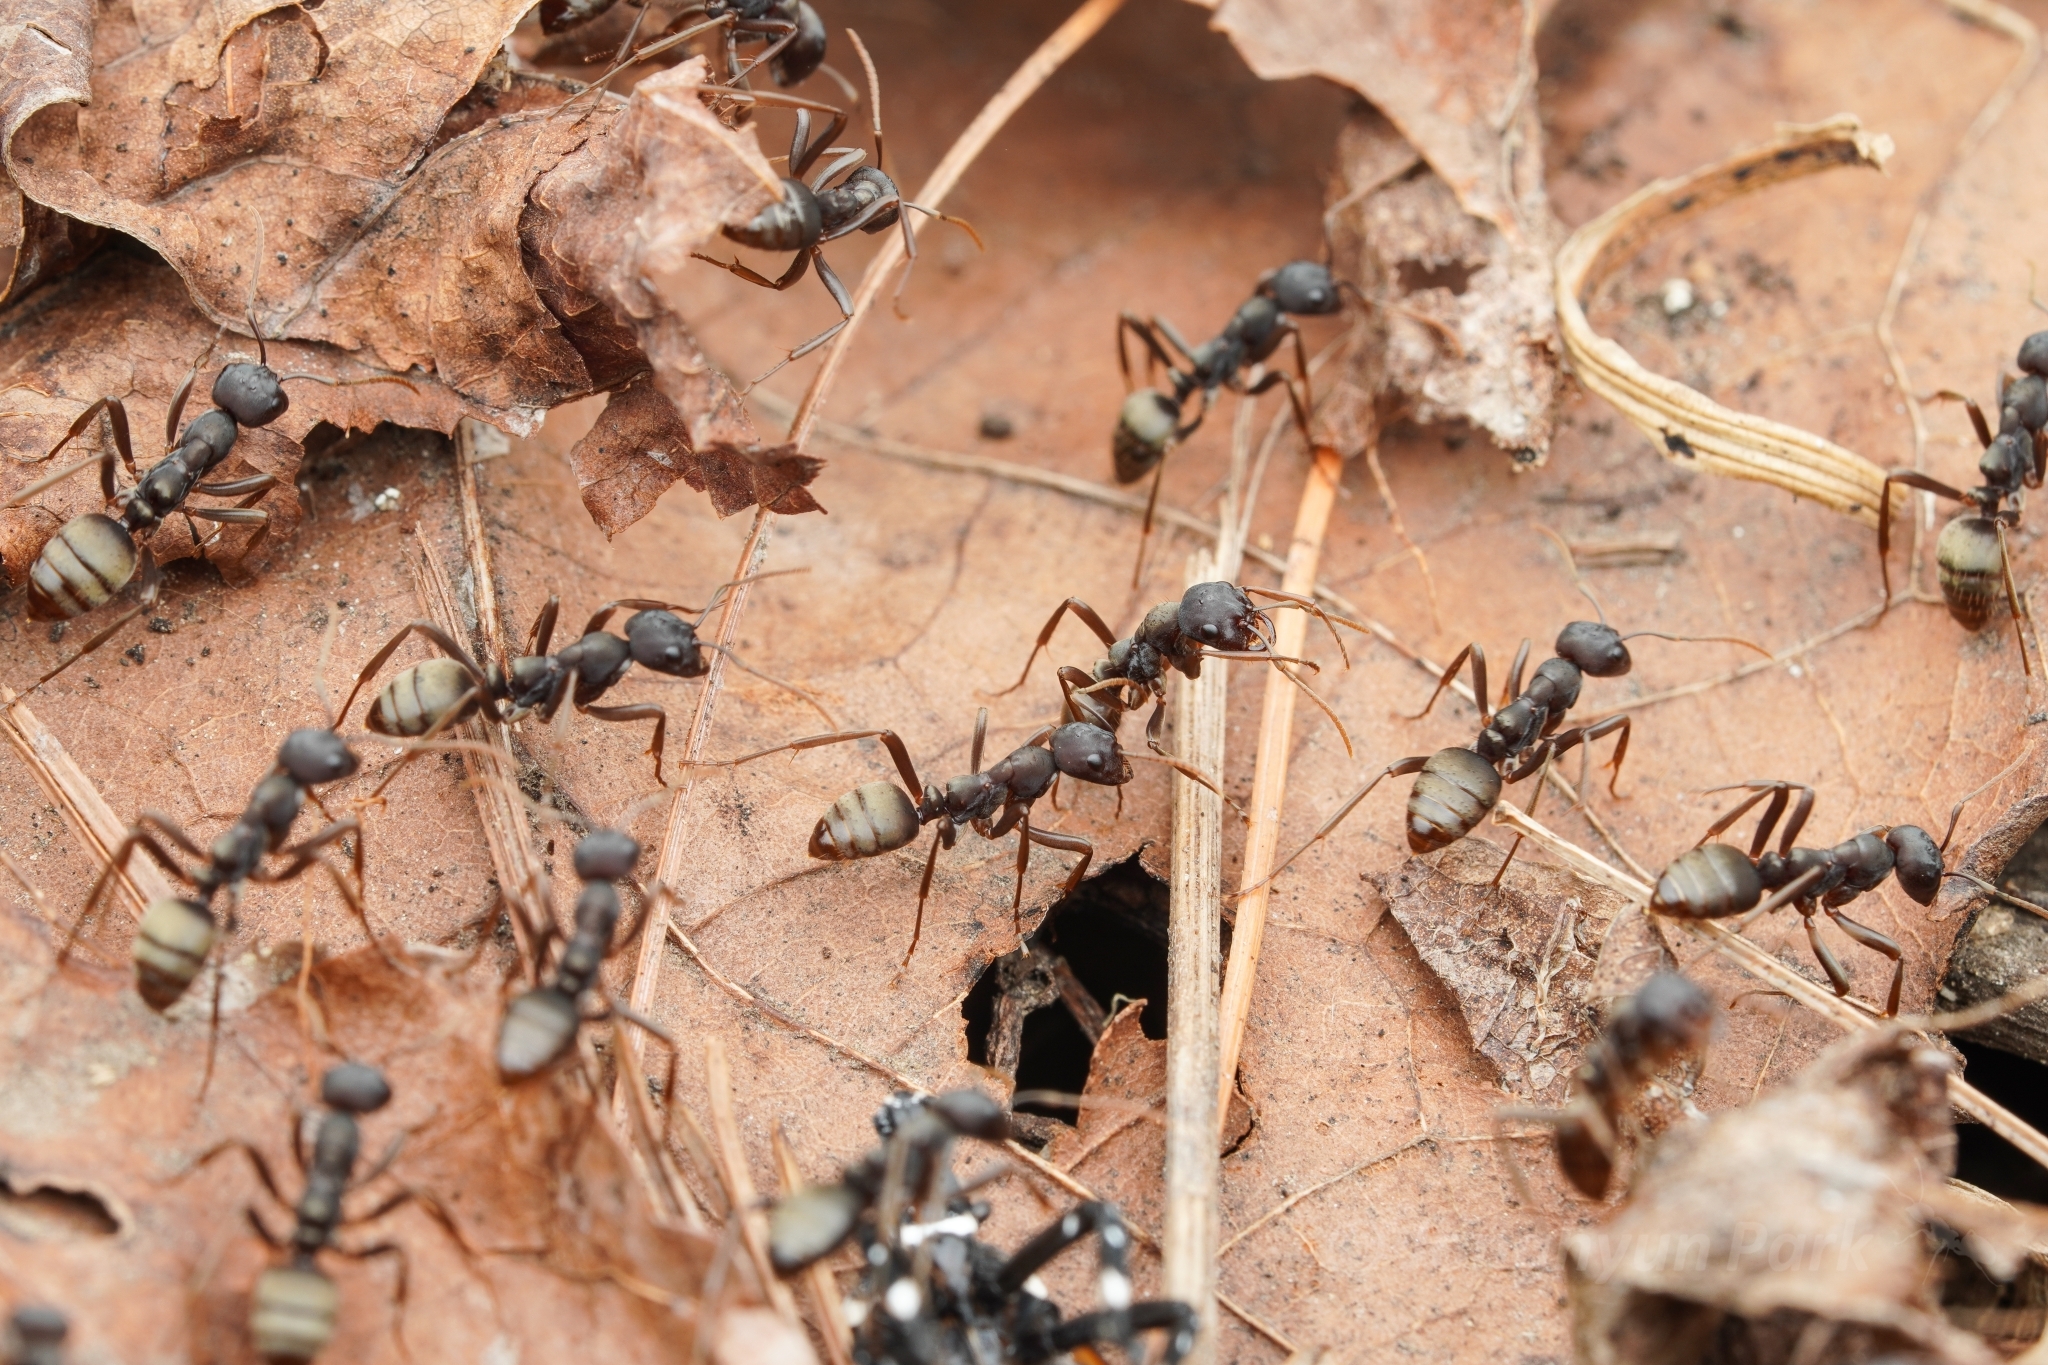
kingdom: Animalia
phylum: Arthropoda
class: Insecta
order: Hymenoptera
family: Formicidae
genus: Polyergus
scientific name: Polyergus samurai
